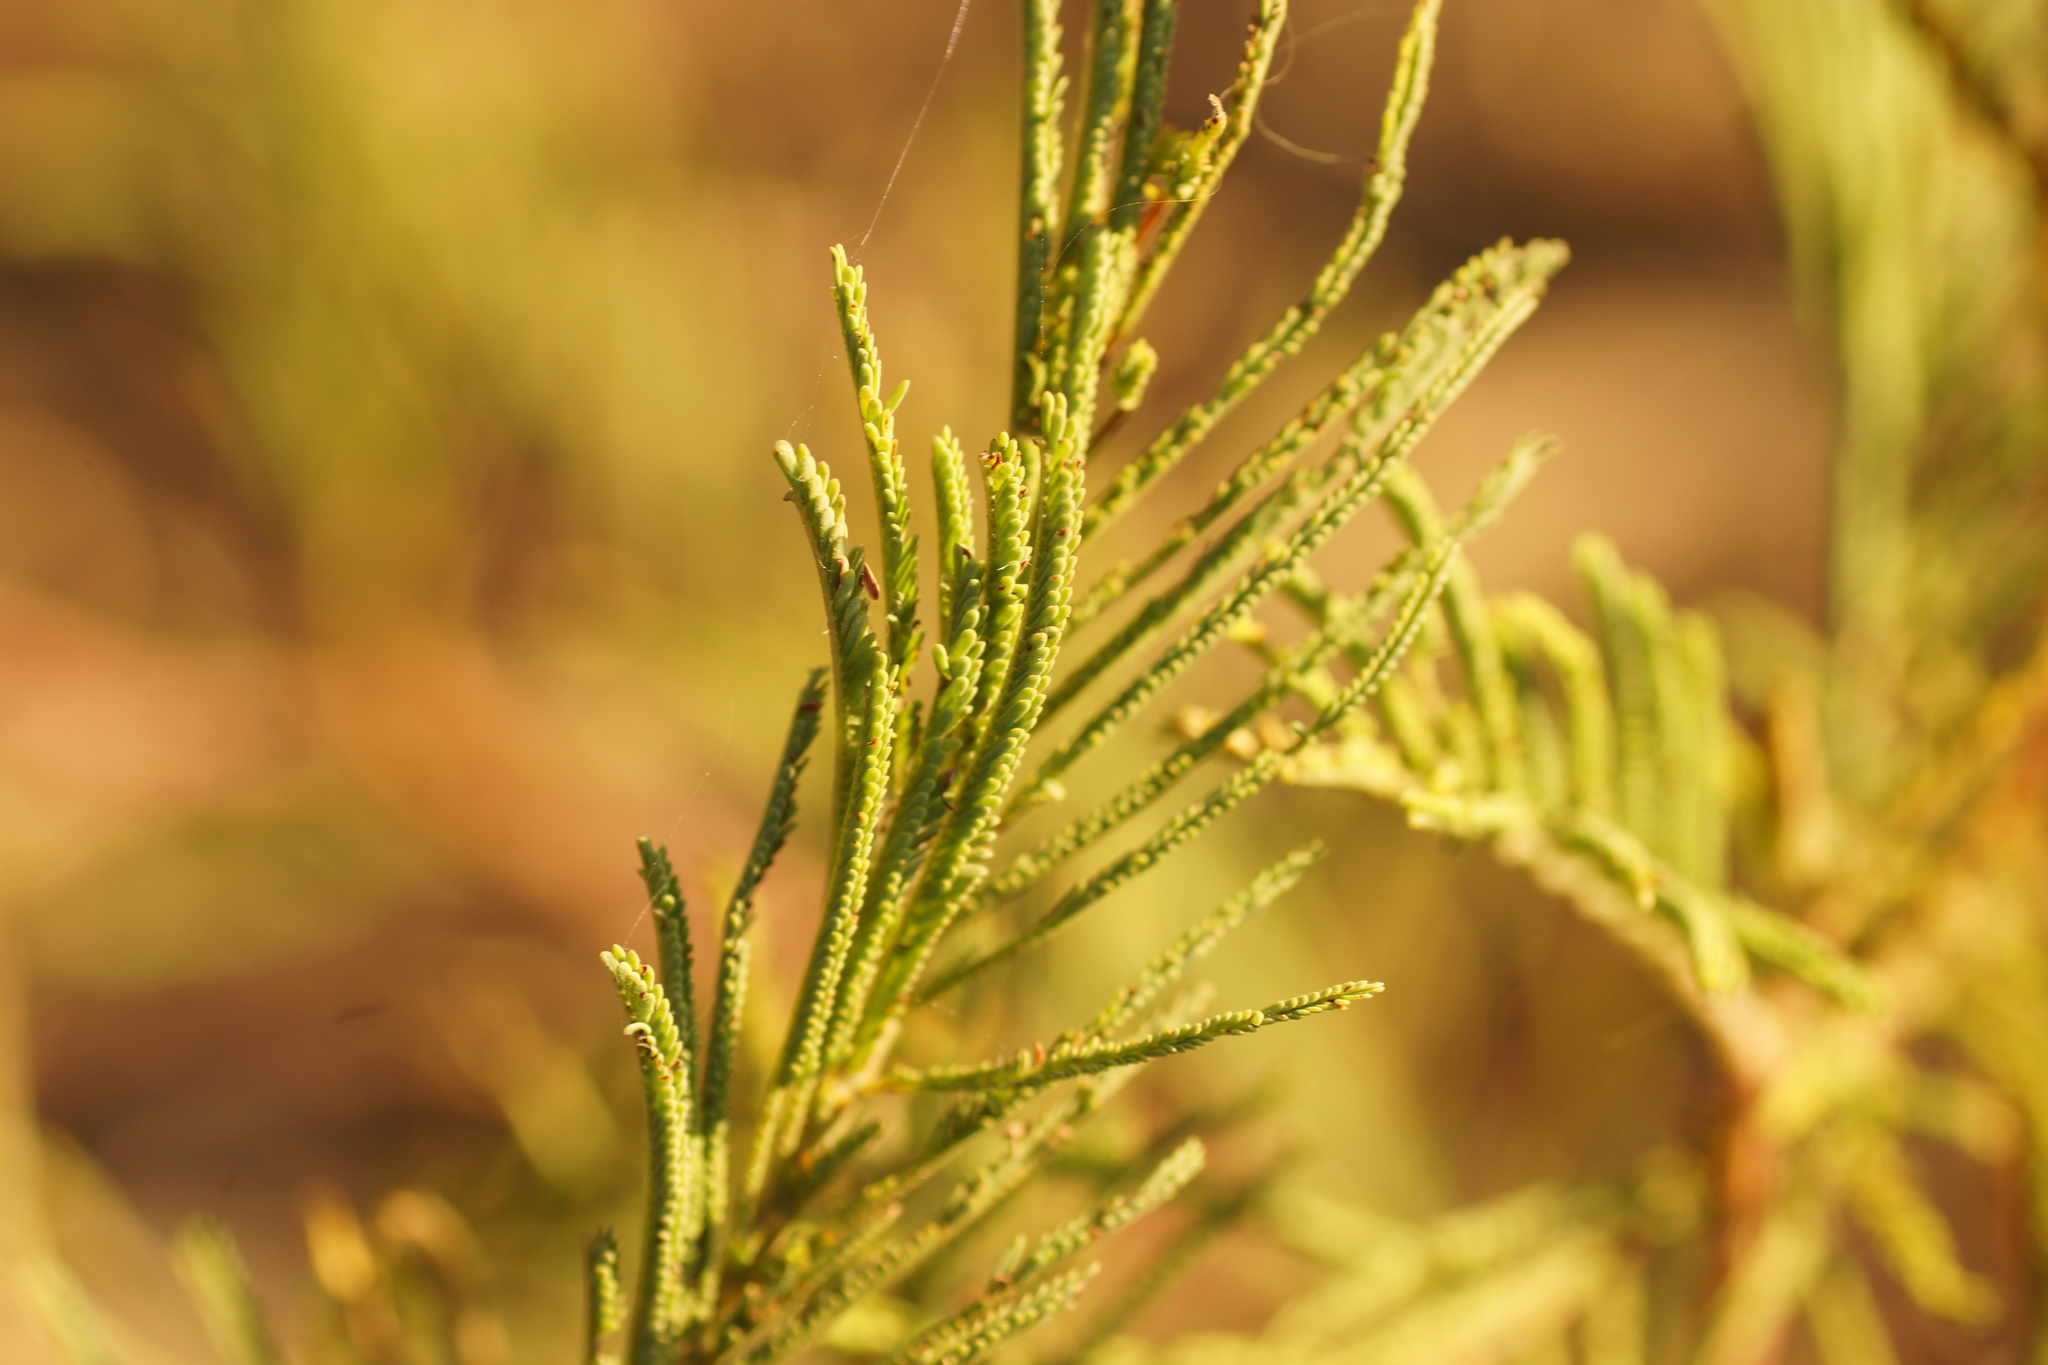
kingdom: Plantae
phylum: Tracheophyta
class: Magnoliopsida
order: Fabales
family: Fabaceae
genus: Acacia
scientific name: Acacia mearnsii
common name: Black wattle
